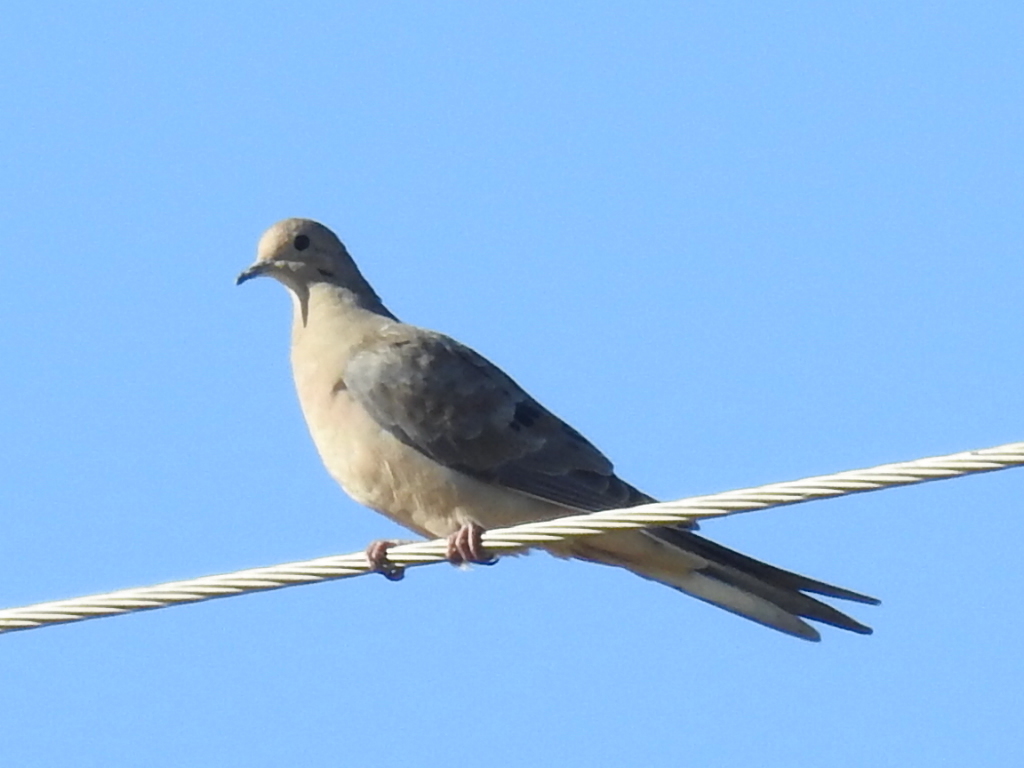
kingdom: Animalia
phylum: Chordata
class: Aves
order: Columbiformes
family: Columbidae
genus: Zenaida
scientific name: Zenaida macroura
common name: Mourning dove
